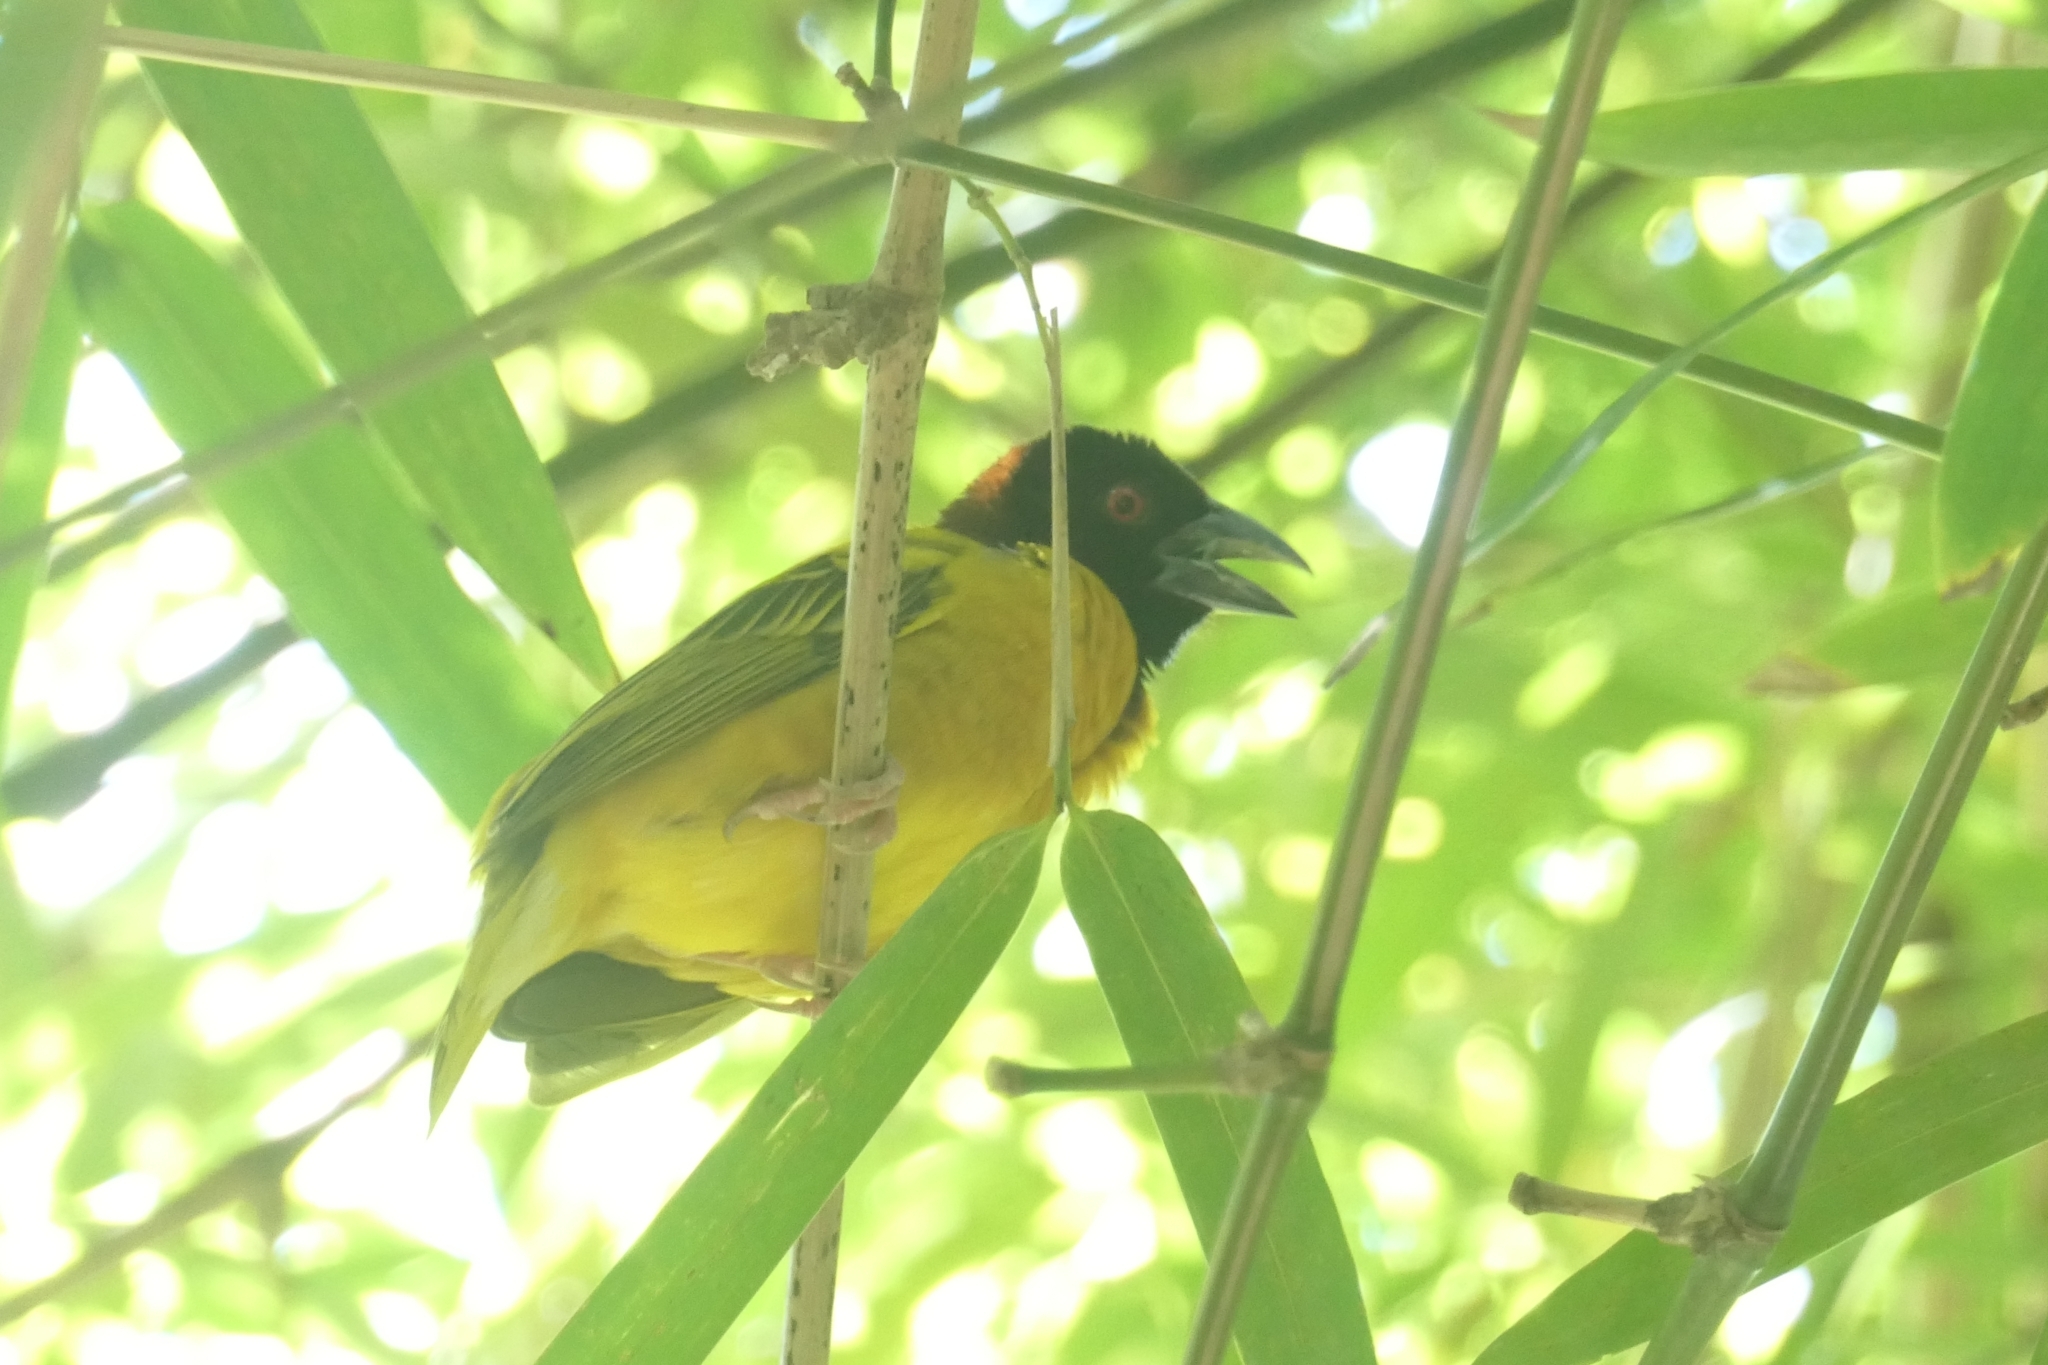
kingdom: Animalia
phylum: Chordata
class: Aves
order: Passeriformes
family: Ploceidae
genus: Ploceus
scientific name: Ploceus cucullatus
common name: Village weaver
